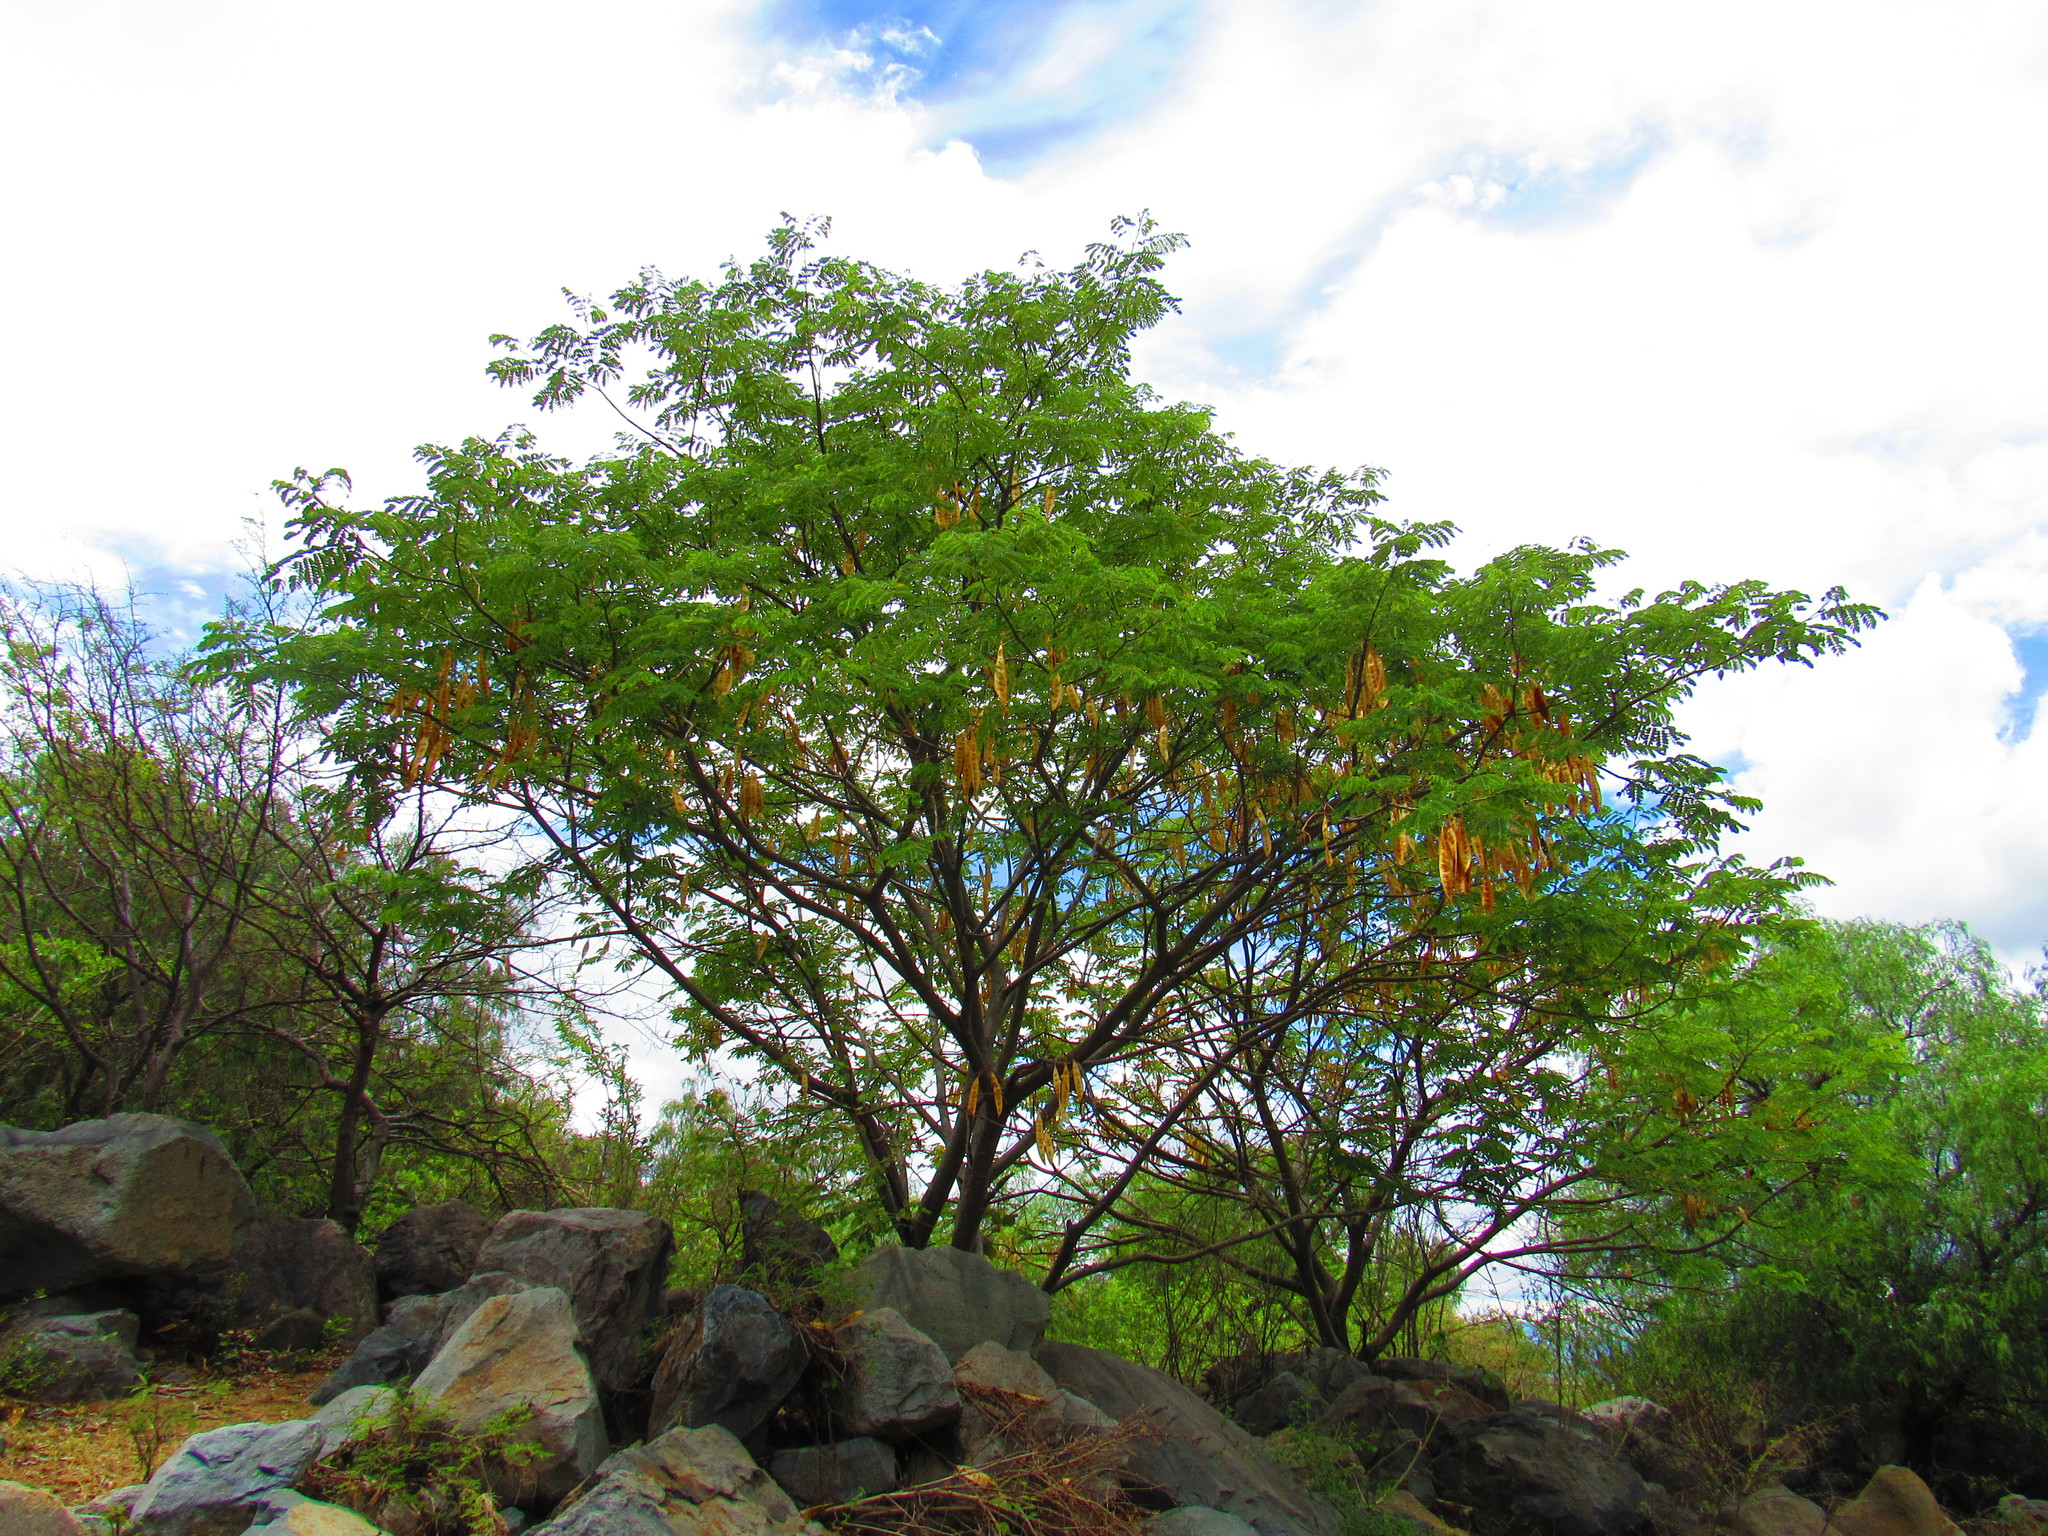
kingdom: Plantae
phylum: Tracheophyta
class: Magnoliopsida
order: Fabales
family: Fabaceae
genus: Albizia
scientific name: Albizia occidentalis
